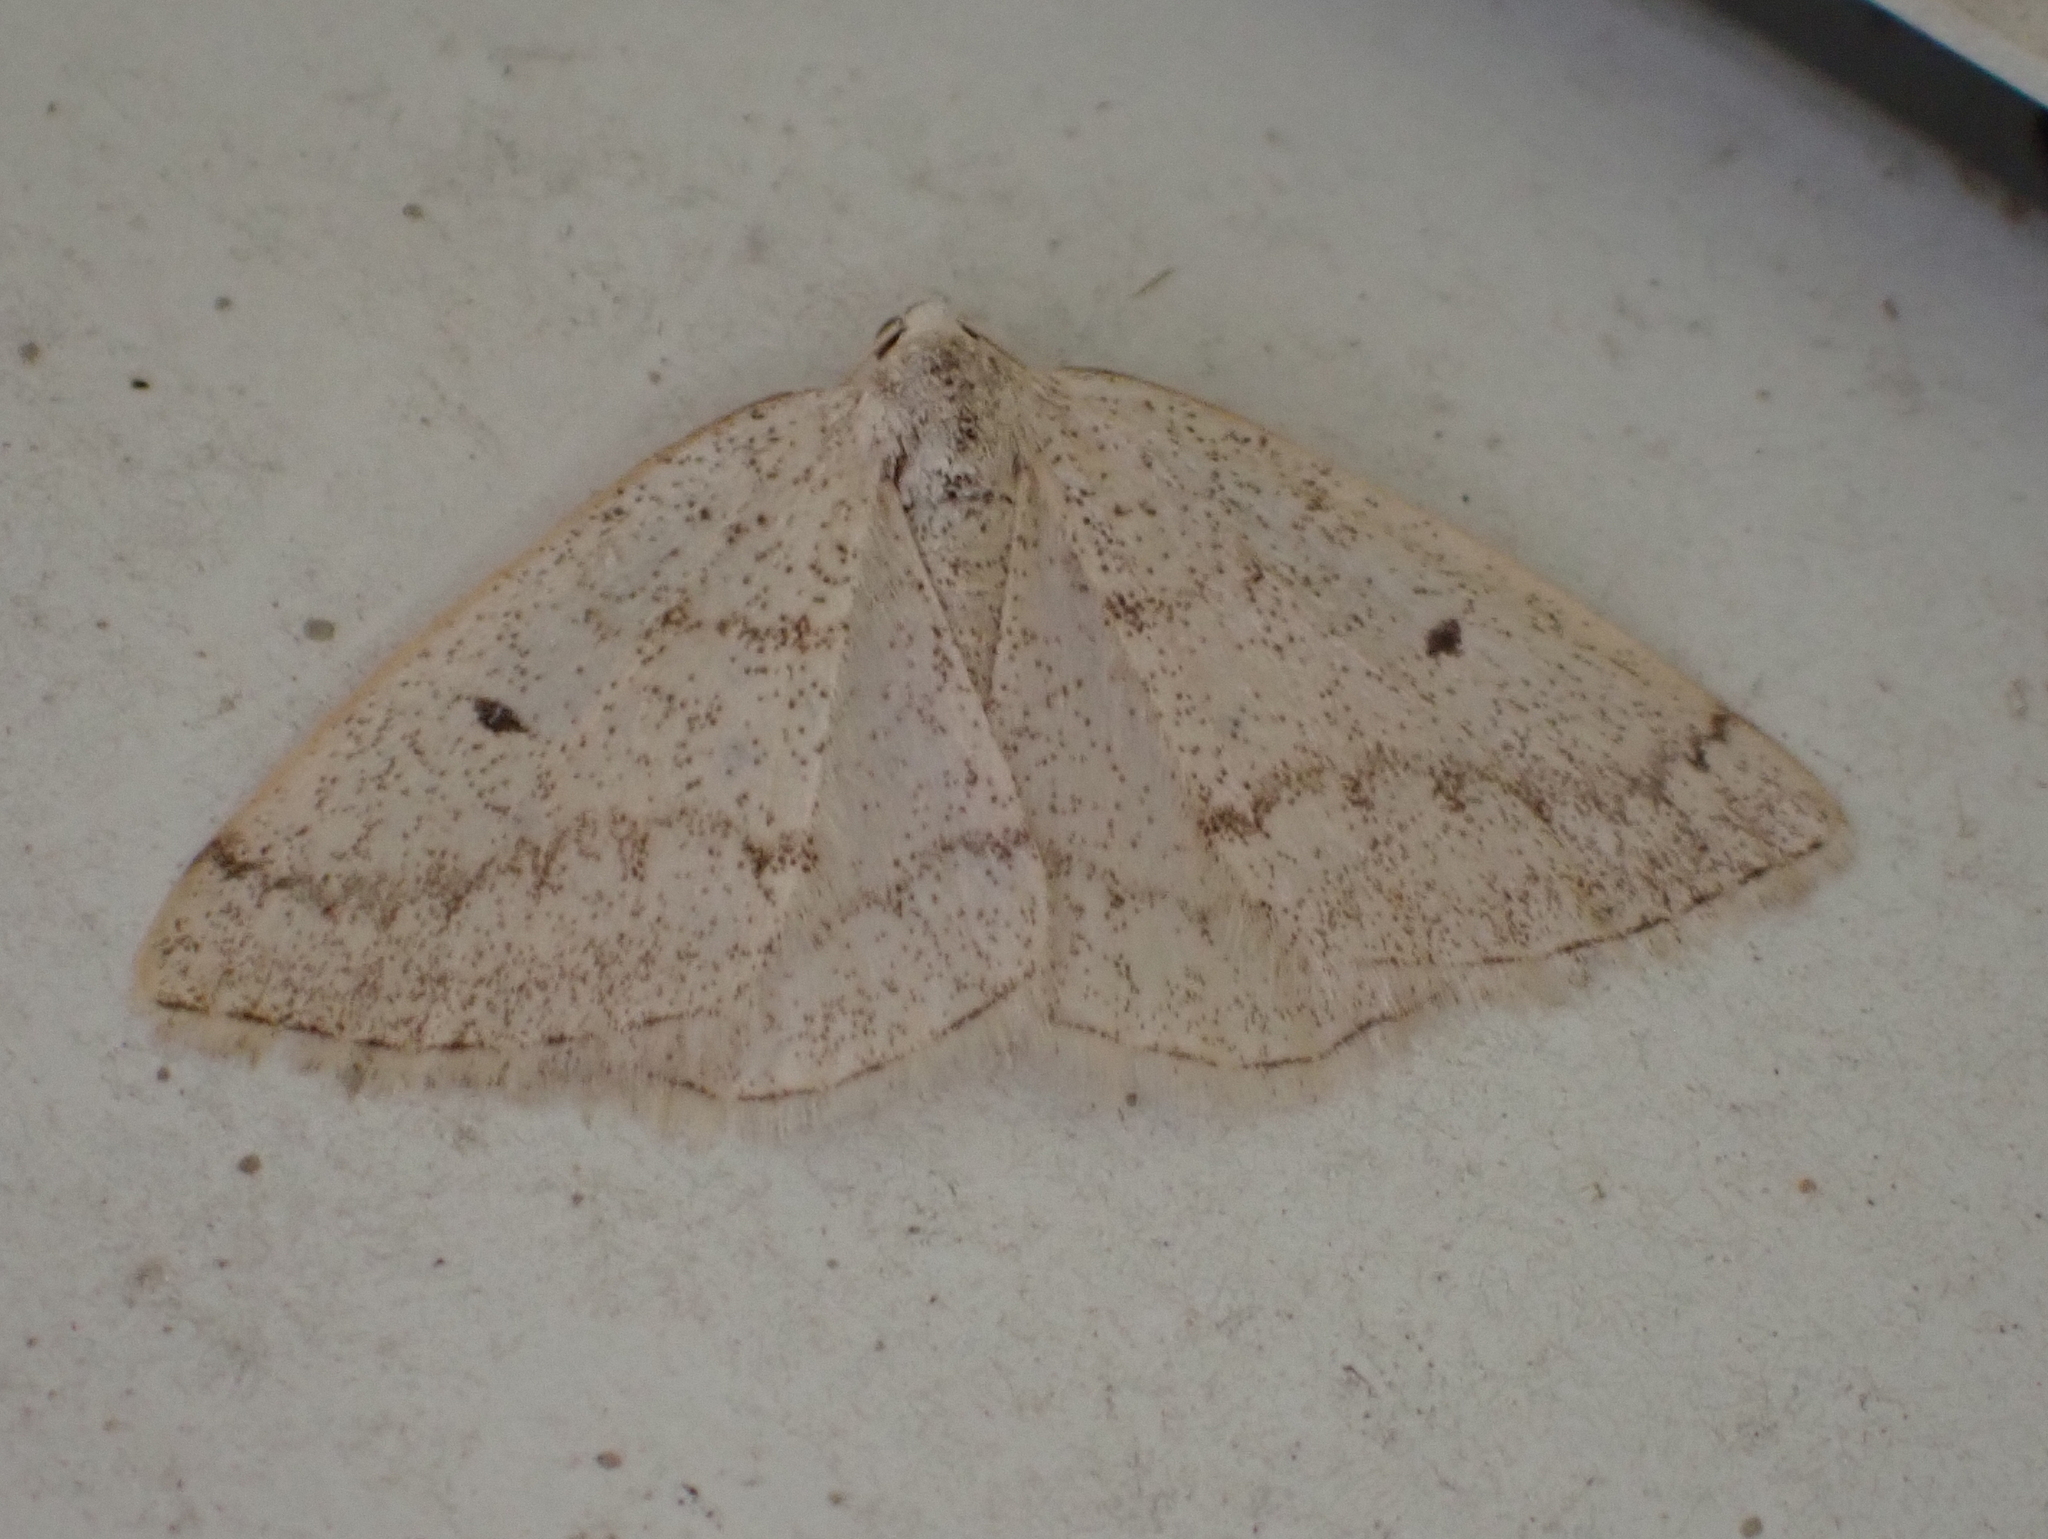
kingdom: Animalia
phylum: Arthropoda
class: Insecta
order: Lepidoptera
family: Geometridae
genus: Lomographa
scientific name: Lomographa glomeraria
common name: Gray spring moth
